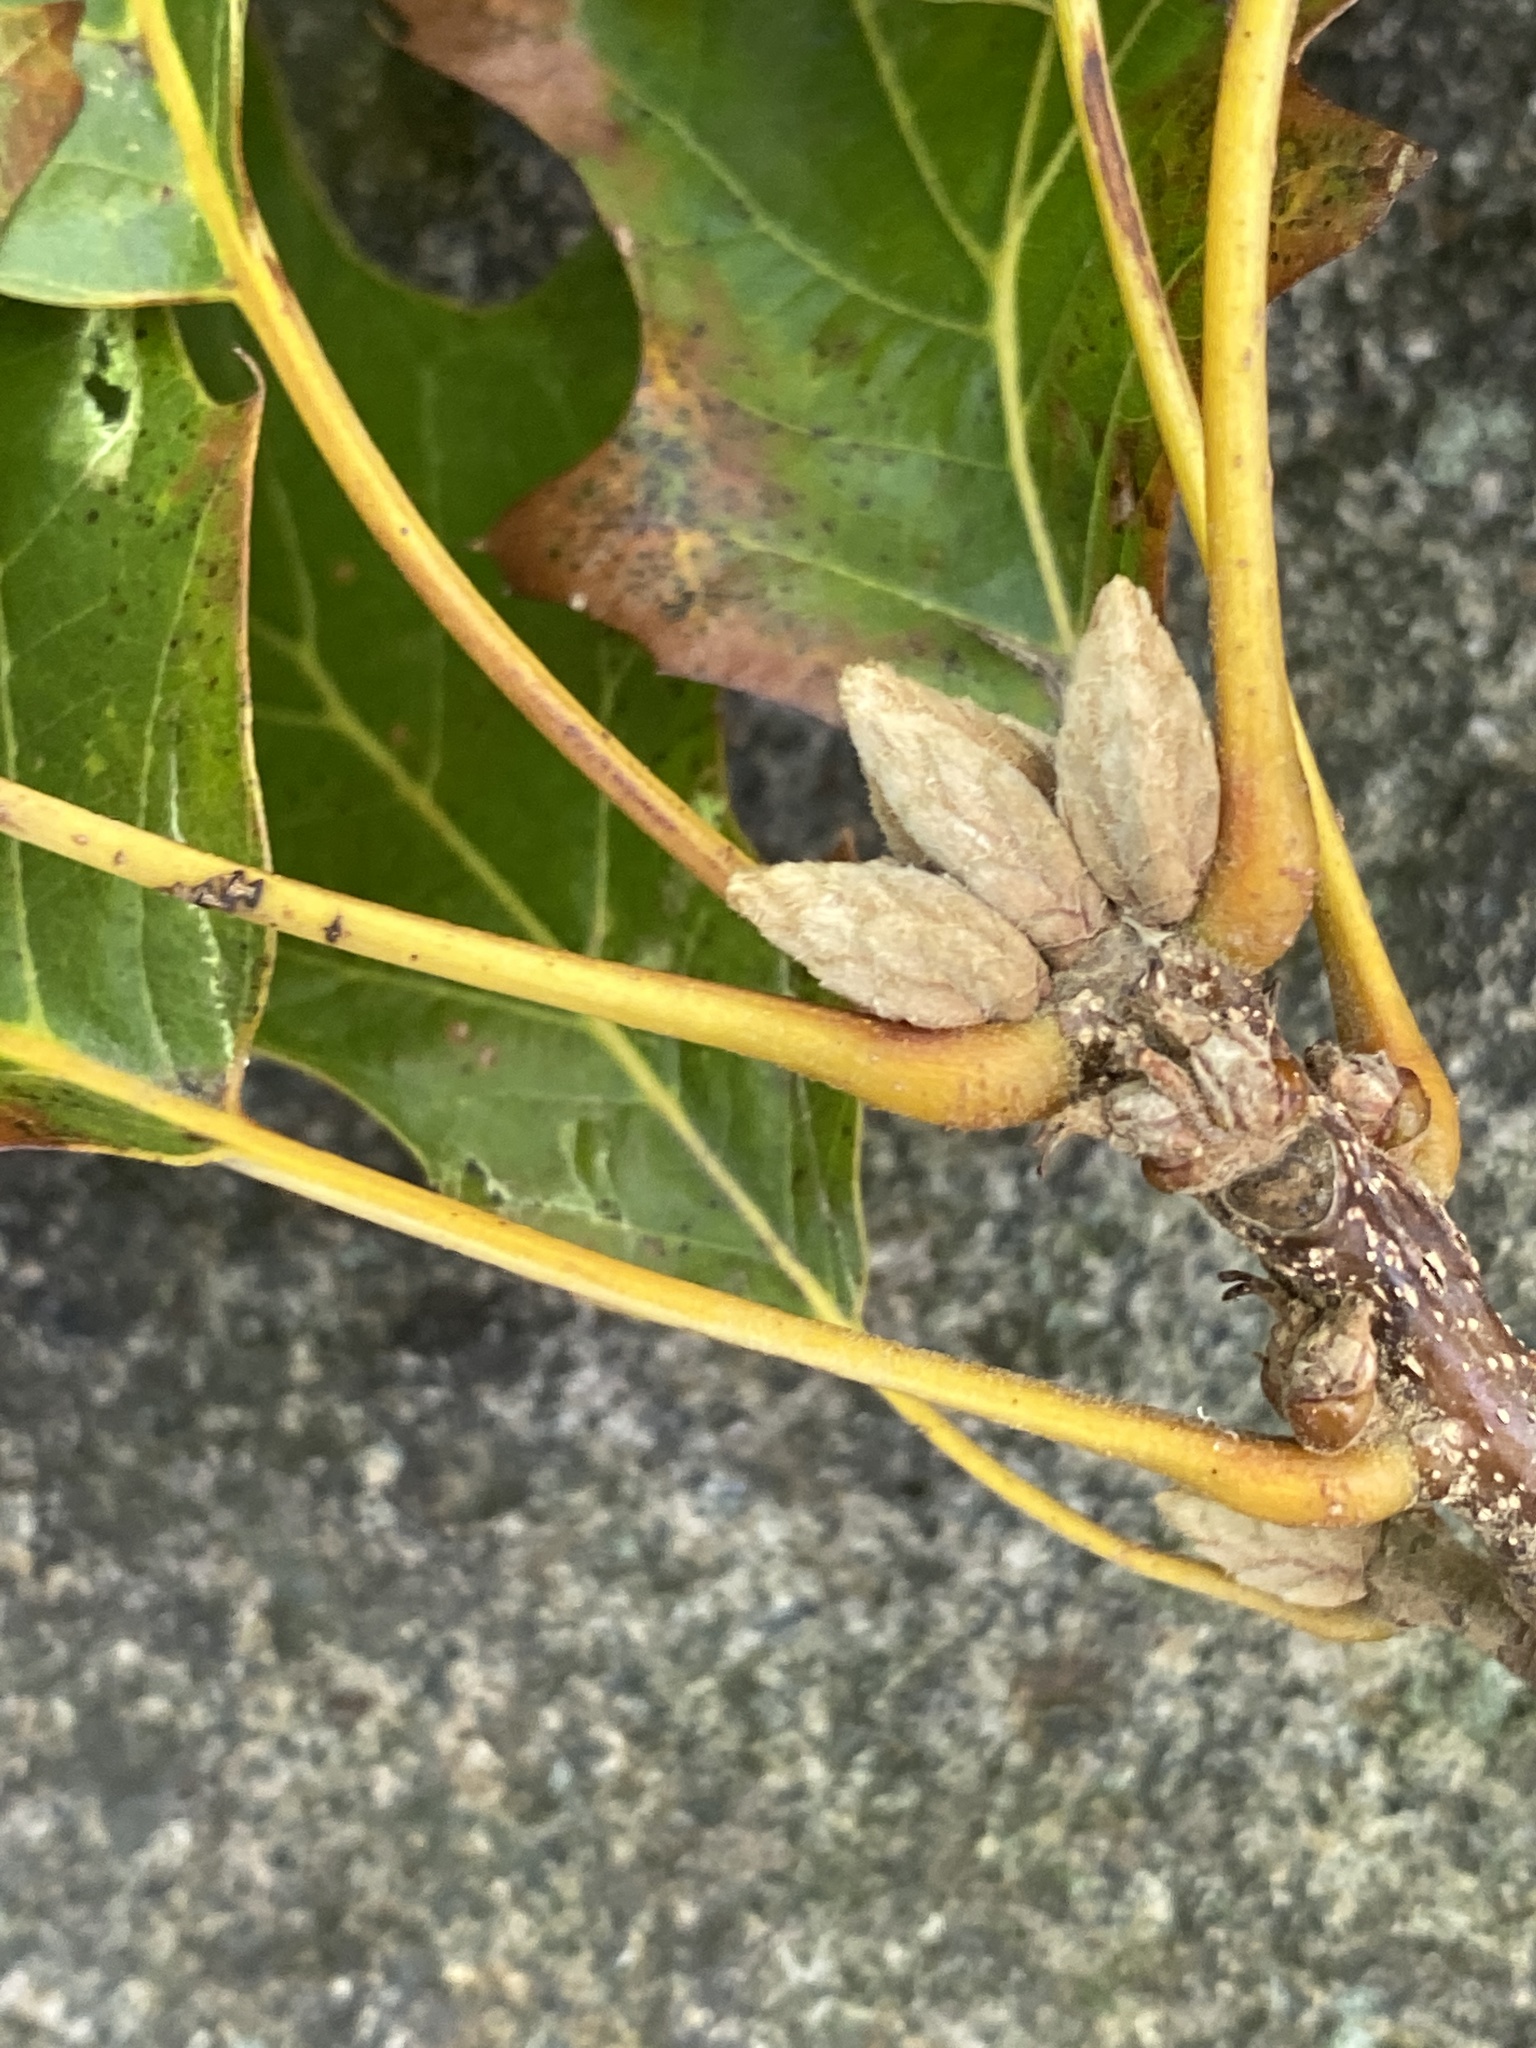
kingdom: Plantae
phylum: Tracheophyta
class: Magnoliopsida
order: Fagales
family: Fagaceae
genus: Quercus
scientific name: Quercus velutina
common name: Black oak
